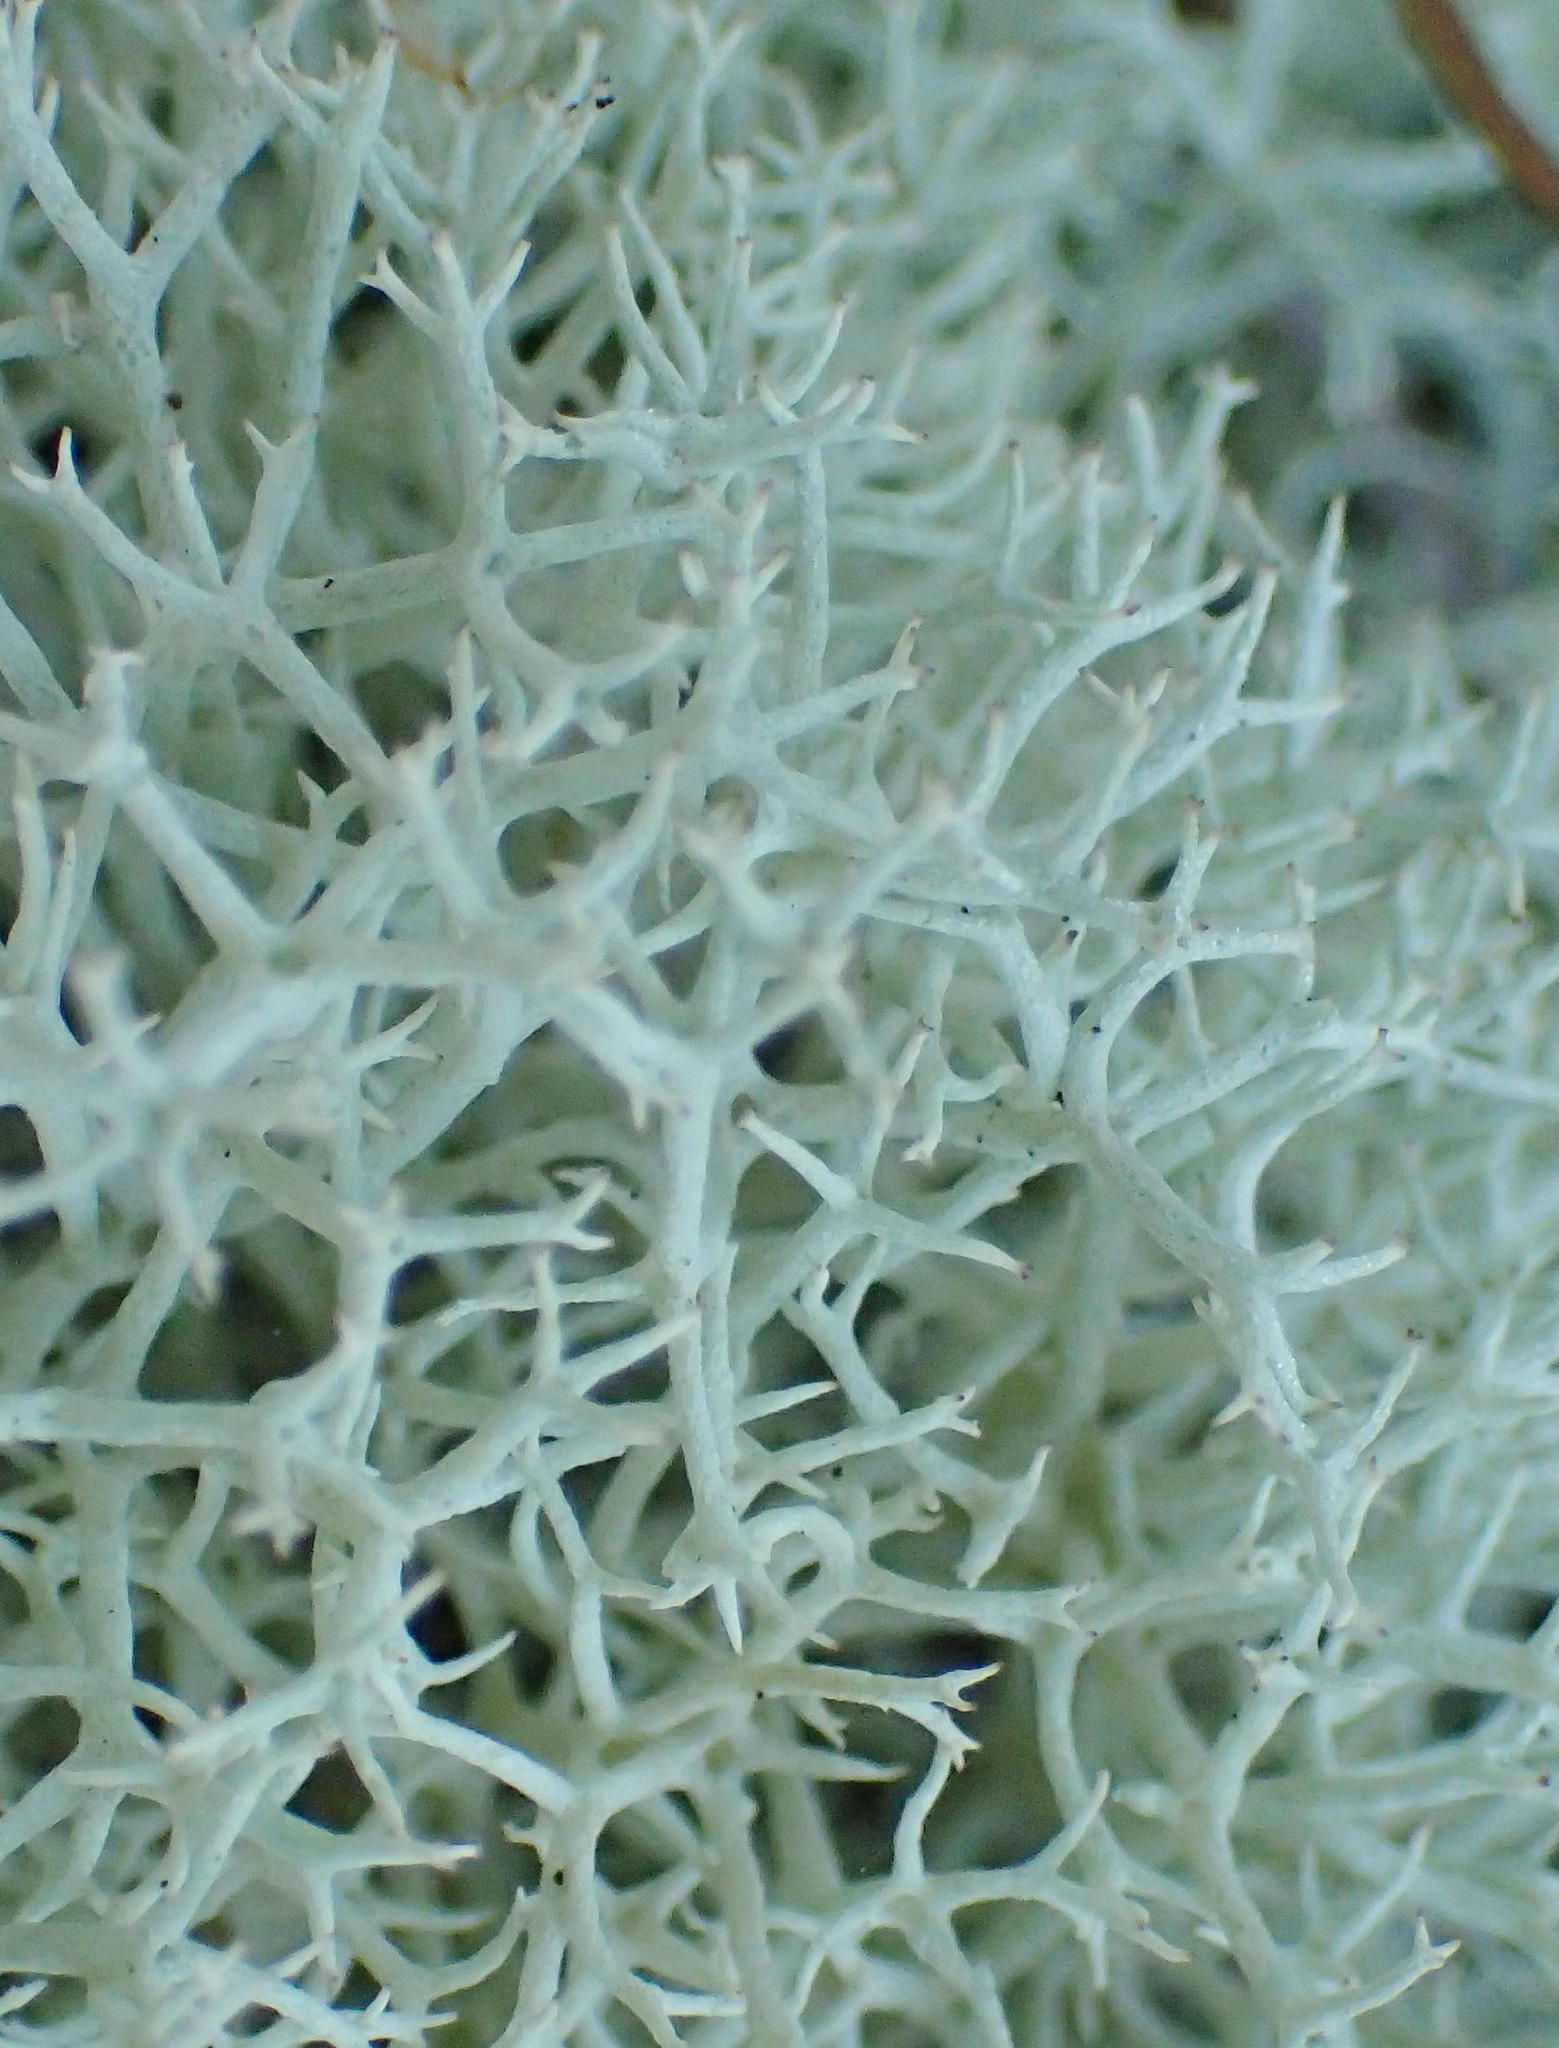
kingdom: Fungi
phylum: Ascomycota
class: Lecanoromycetes
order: Lecanorales
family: Cladoniaceae
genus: Cladonia
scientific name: Cladonia confusa
